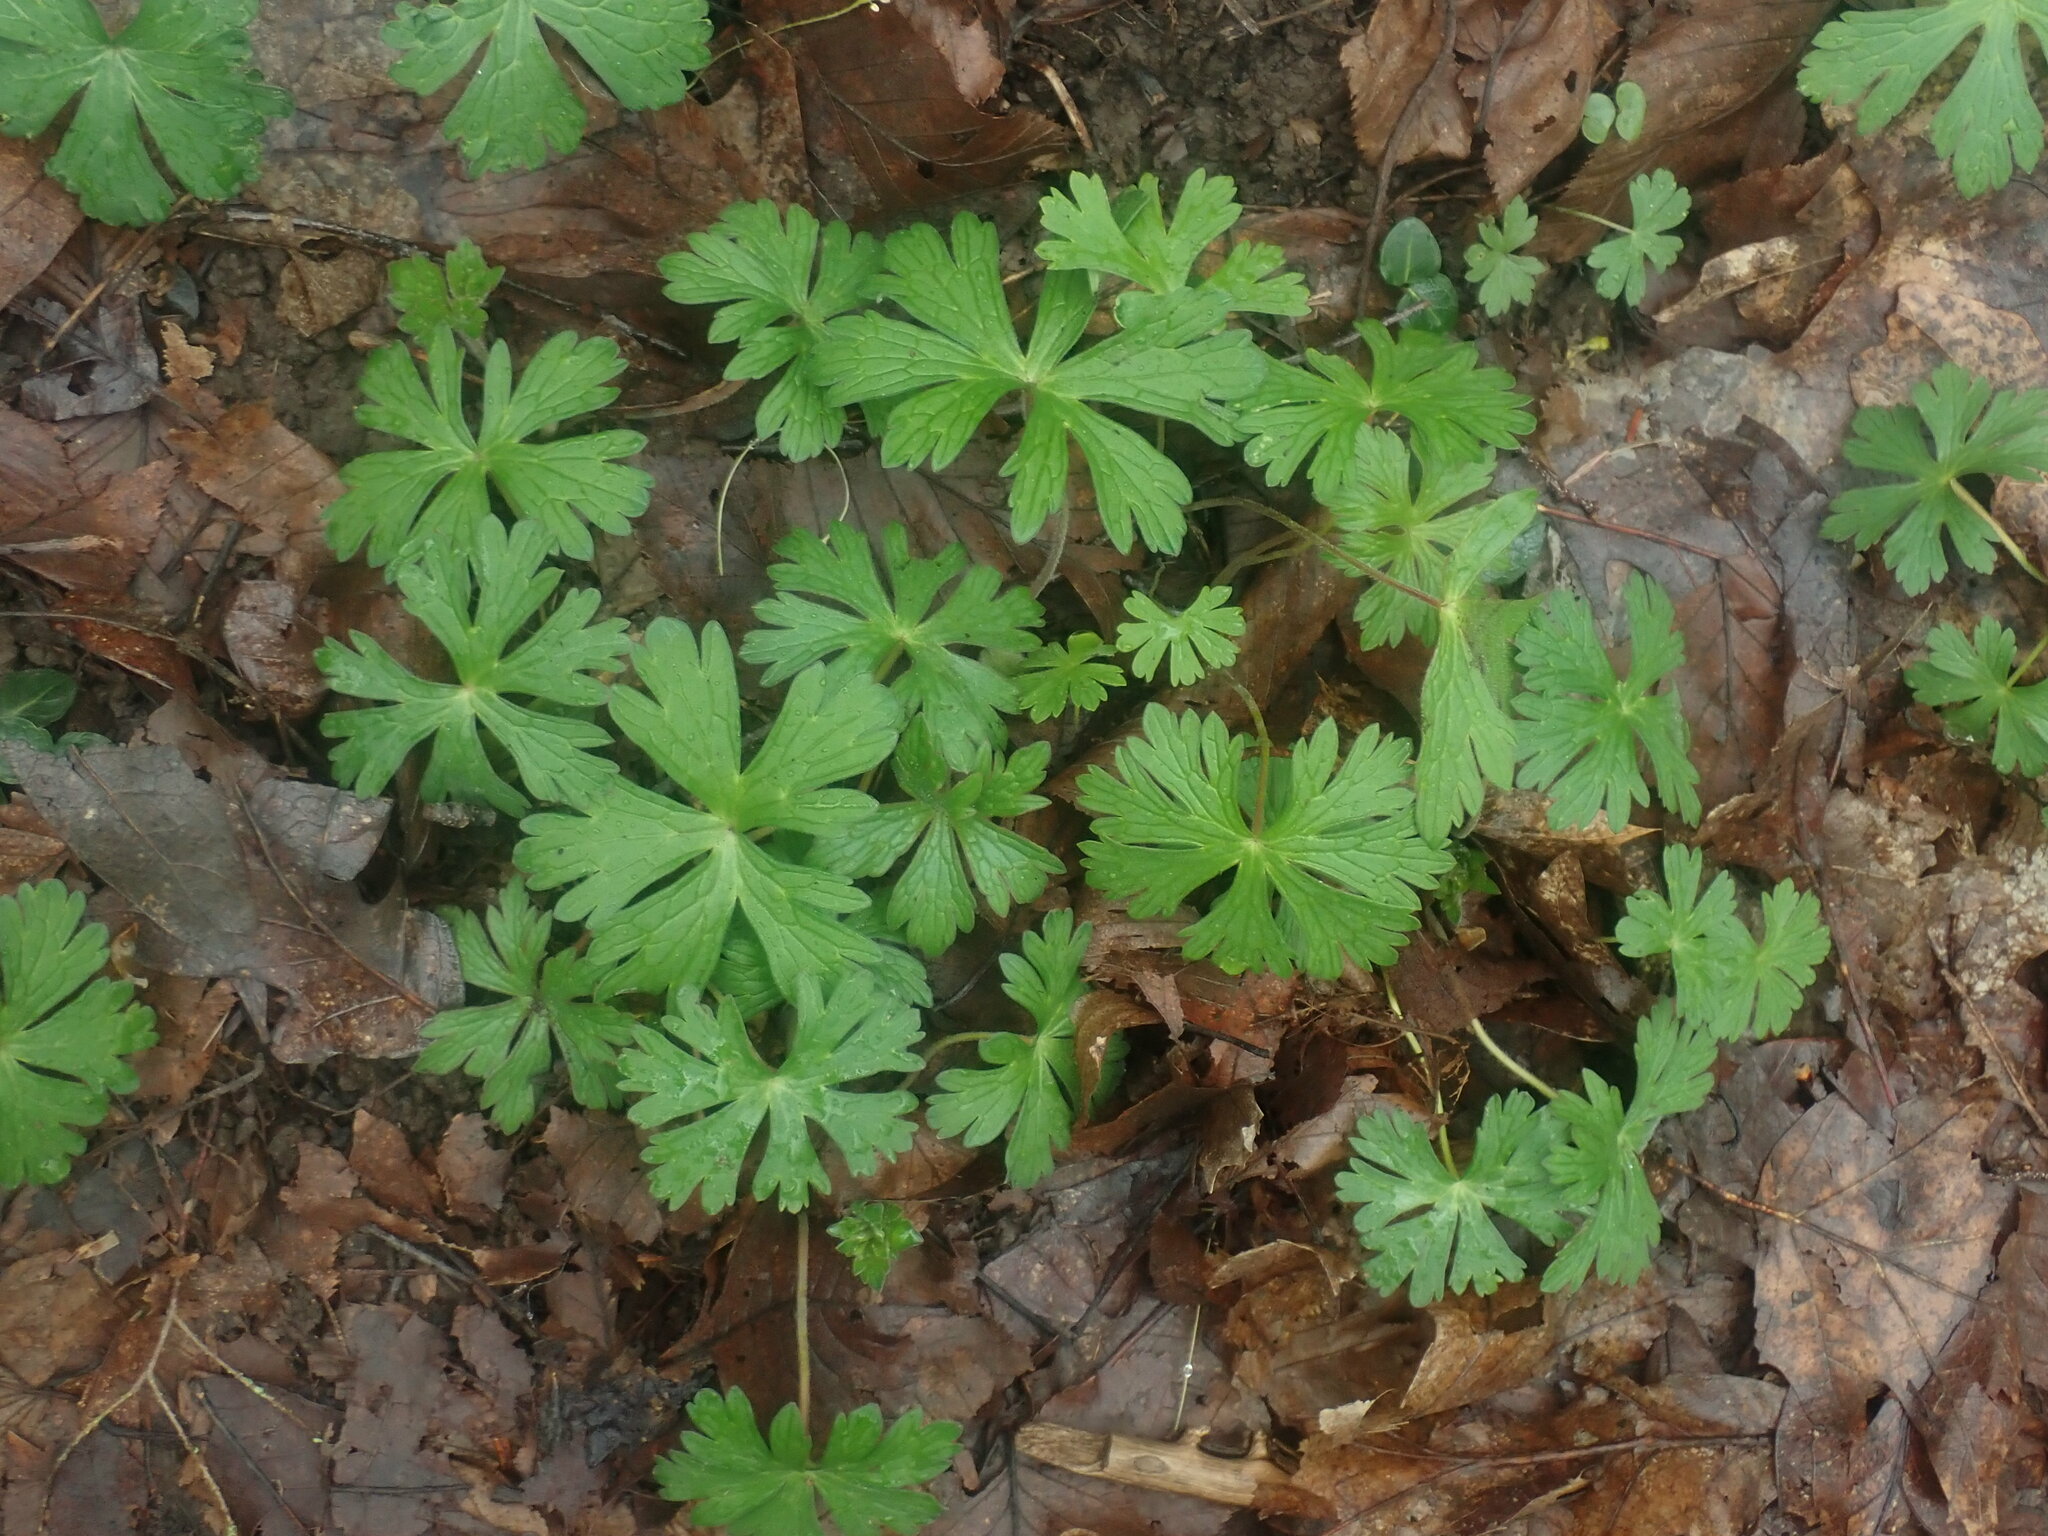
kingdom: Plantae
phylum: Tracheophyta
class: Magnoliopsida
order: Geraniales
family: Geraniaceae
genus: Geranium
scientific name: Geranium maculatum
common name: Spotted geranium
